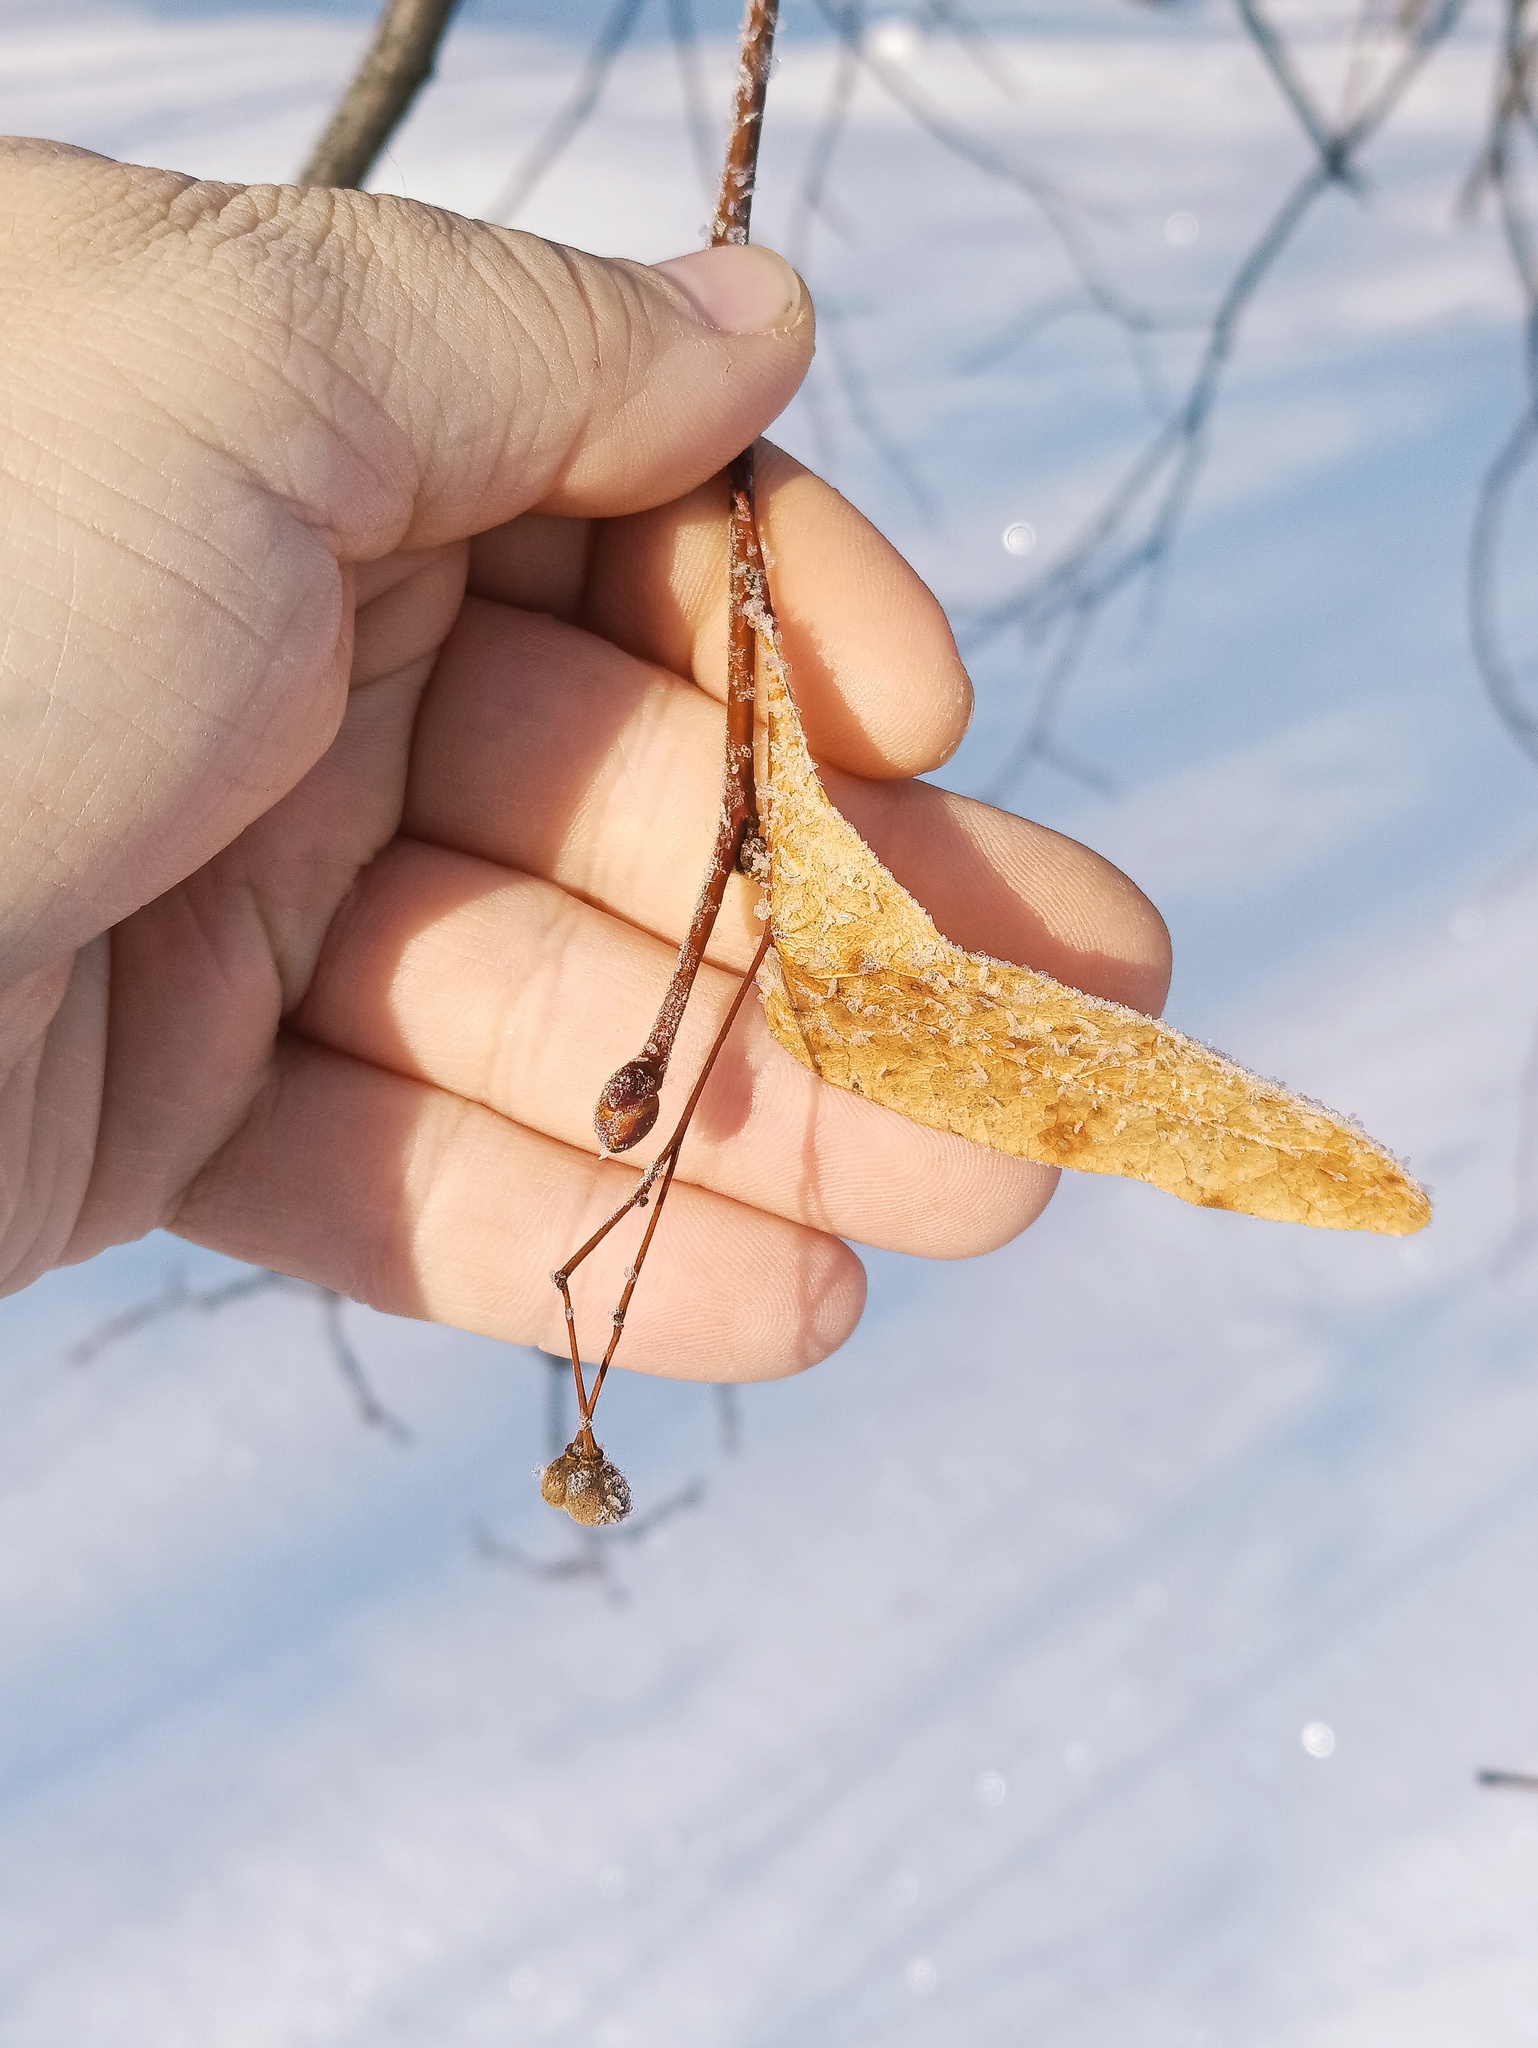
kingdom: Plantae
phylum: Tracheophyta
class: Magnoliopsida
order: Malvales
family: Malvaceae
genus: Tilia
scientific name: Tilia cordata
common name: Small-leaved lime
